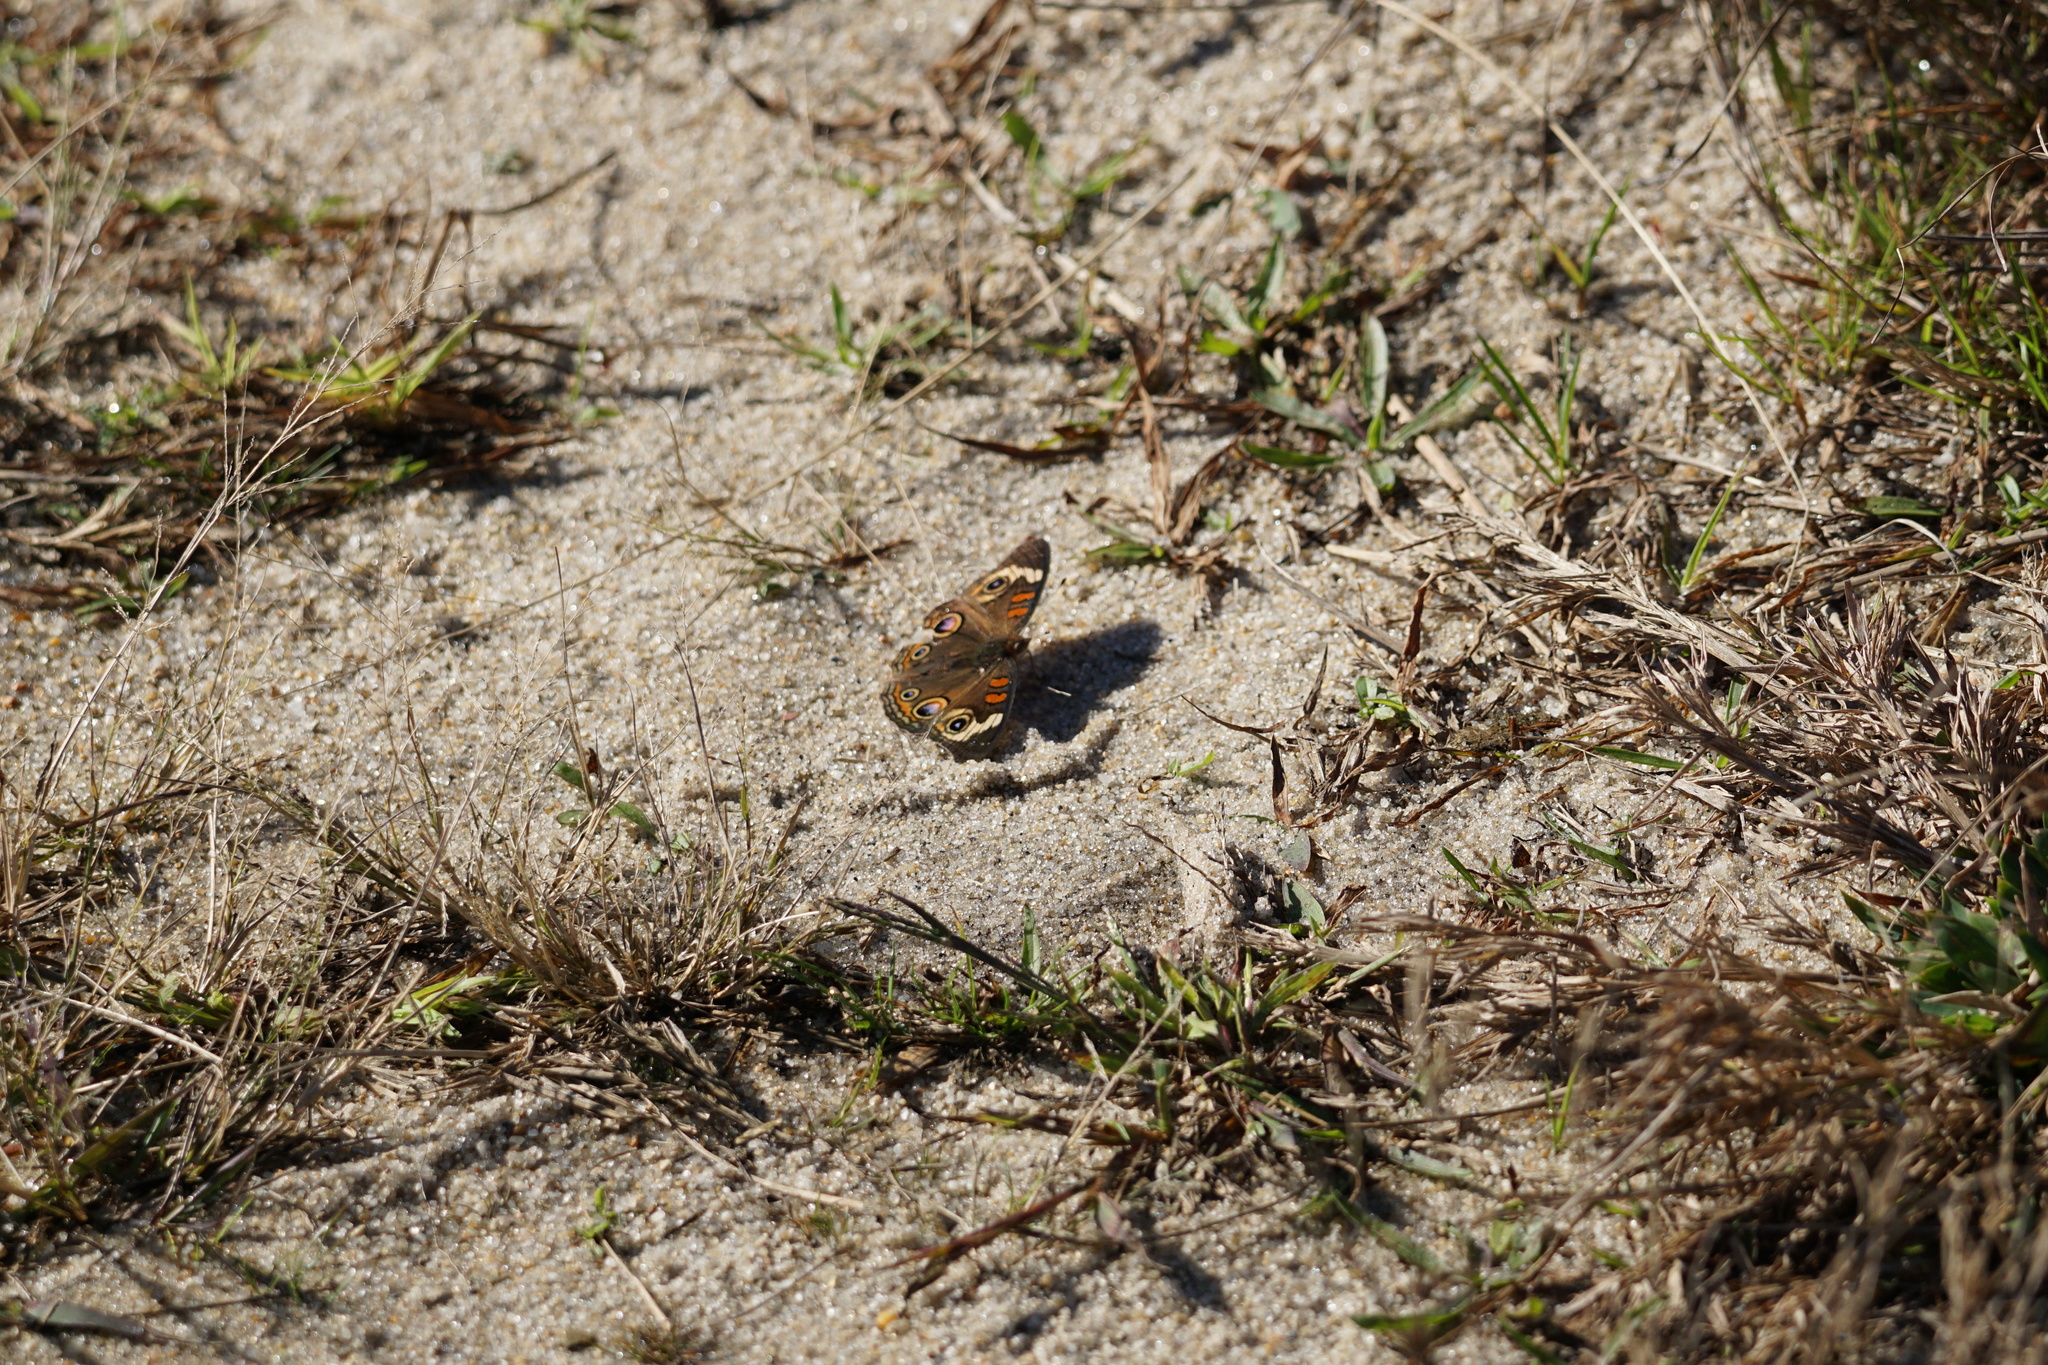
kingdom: Animalia
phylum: Arthropoda
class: Insecta
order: Lepidoptera
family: Nymphalidae
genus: Junonia
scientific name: Junonia coenia
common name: Common buckeye
